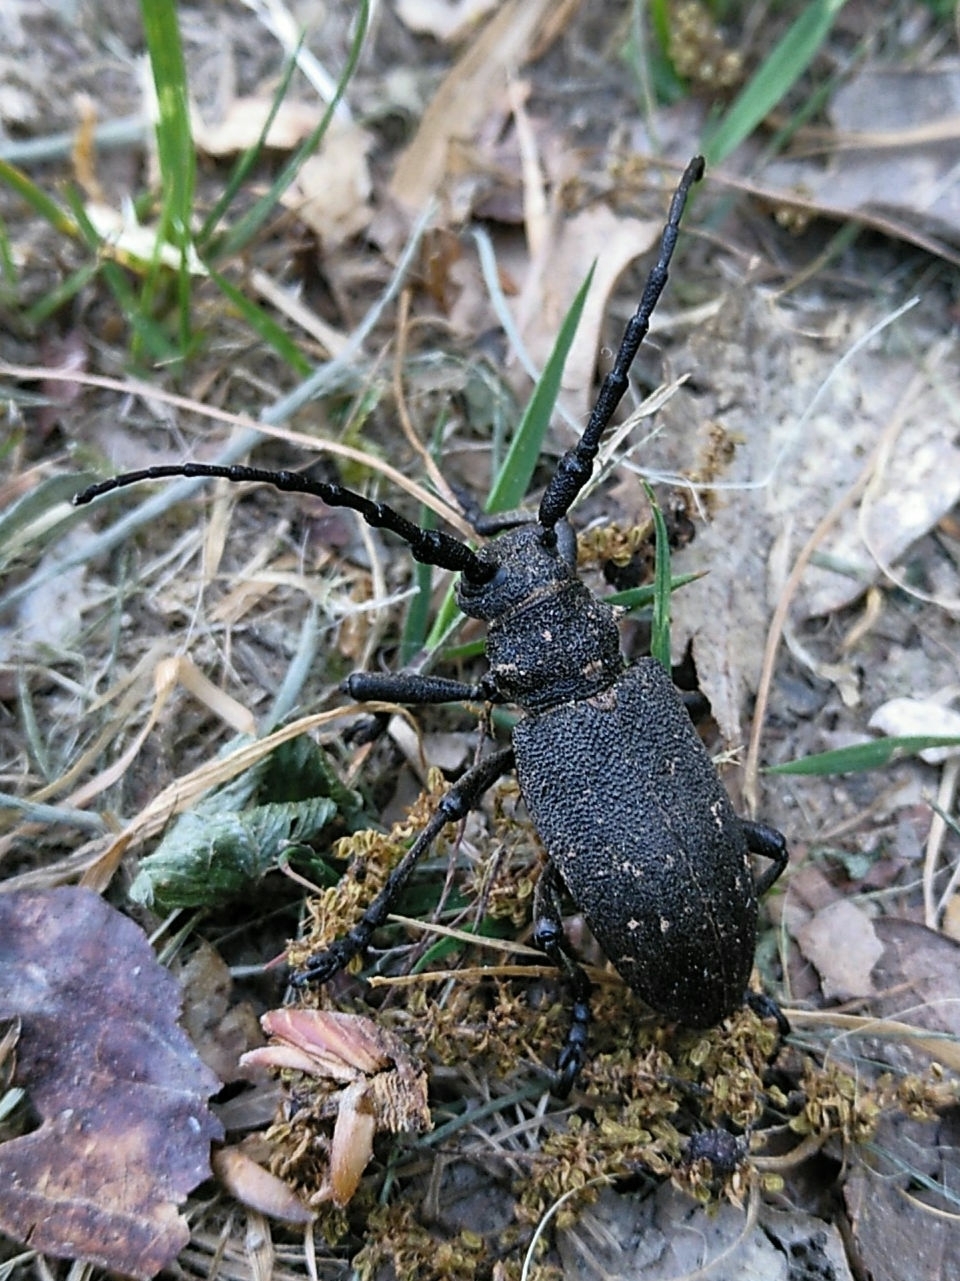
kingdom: Animalia
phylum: Arthropoda
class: Insecta
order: Coleoptera
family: Cerambycidae
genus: Lamia
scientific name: Lamia textor
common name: Weaver beetle
